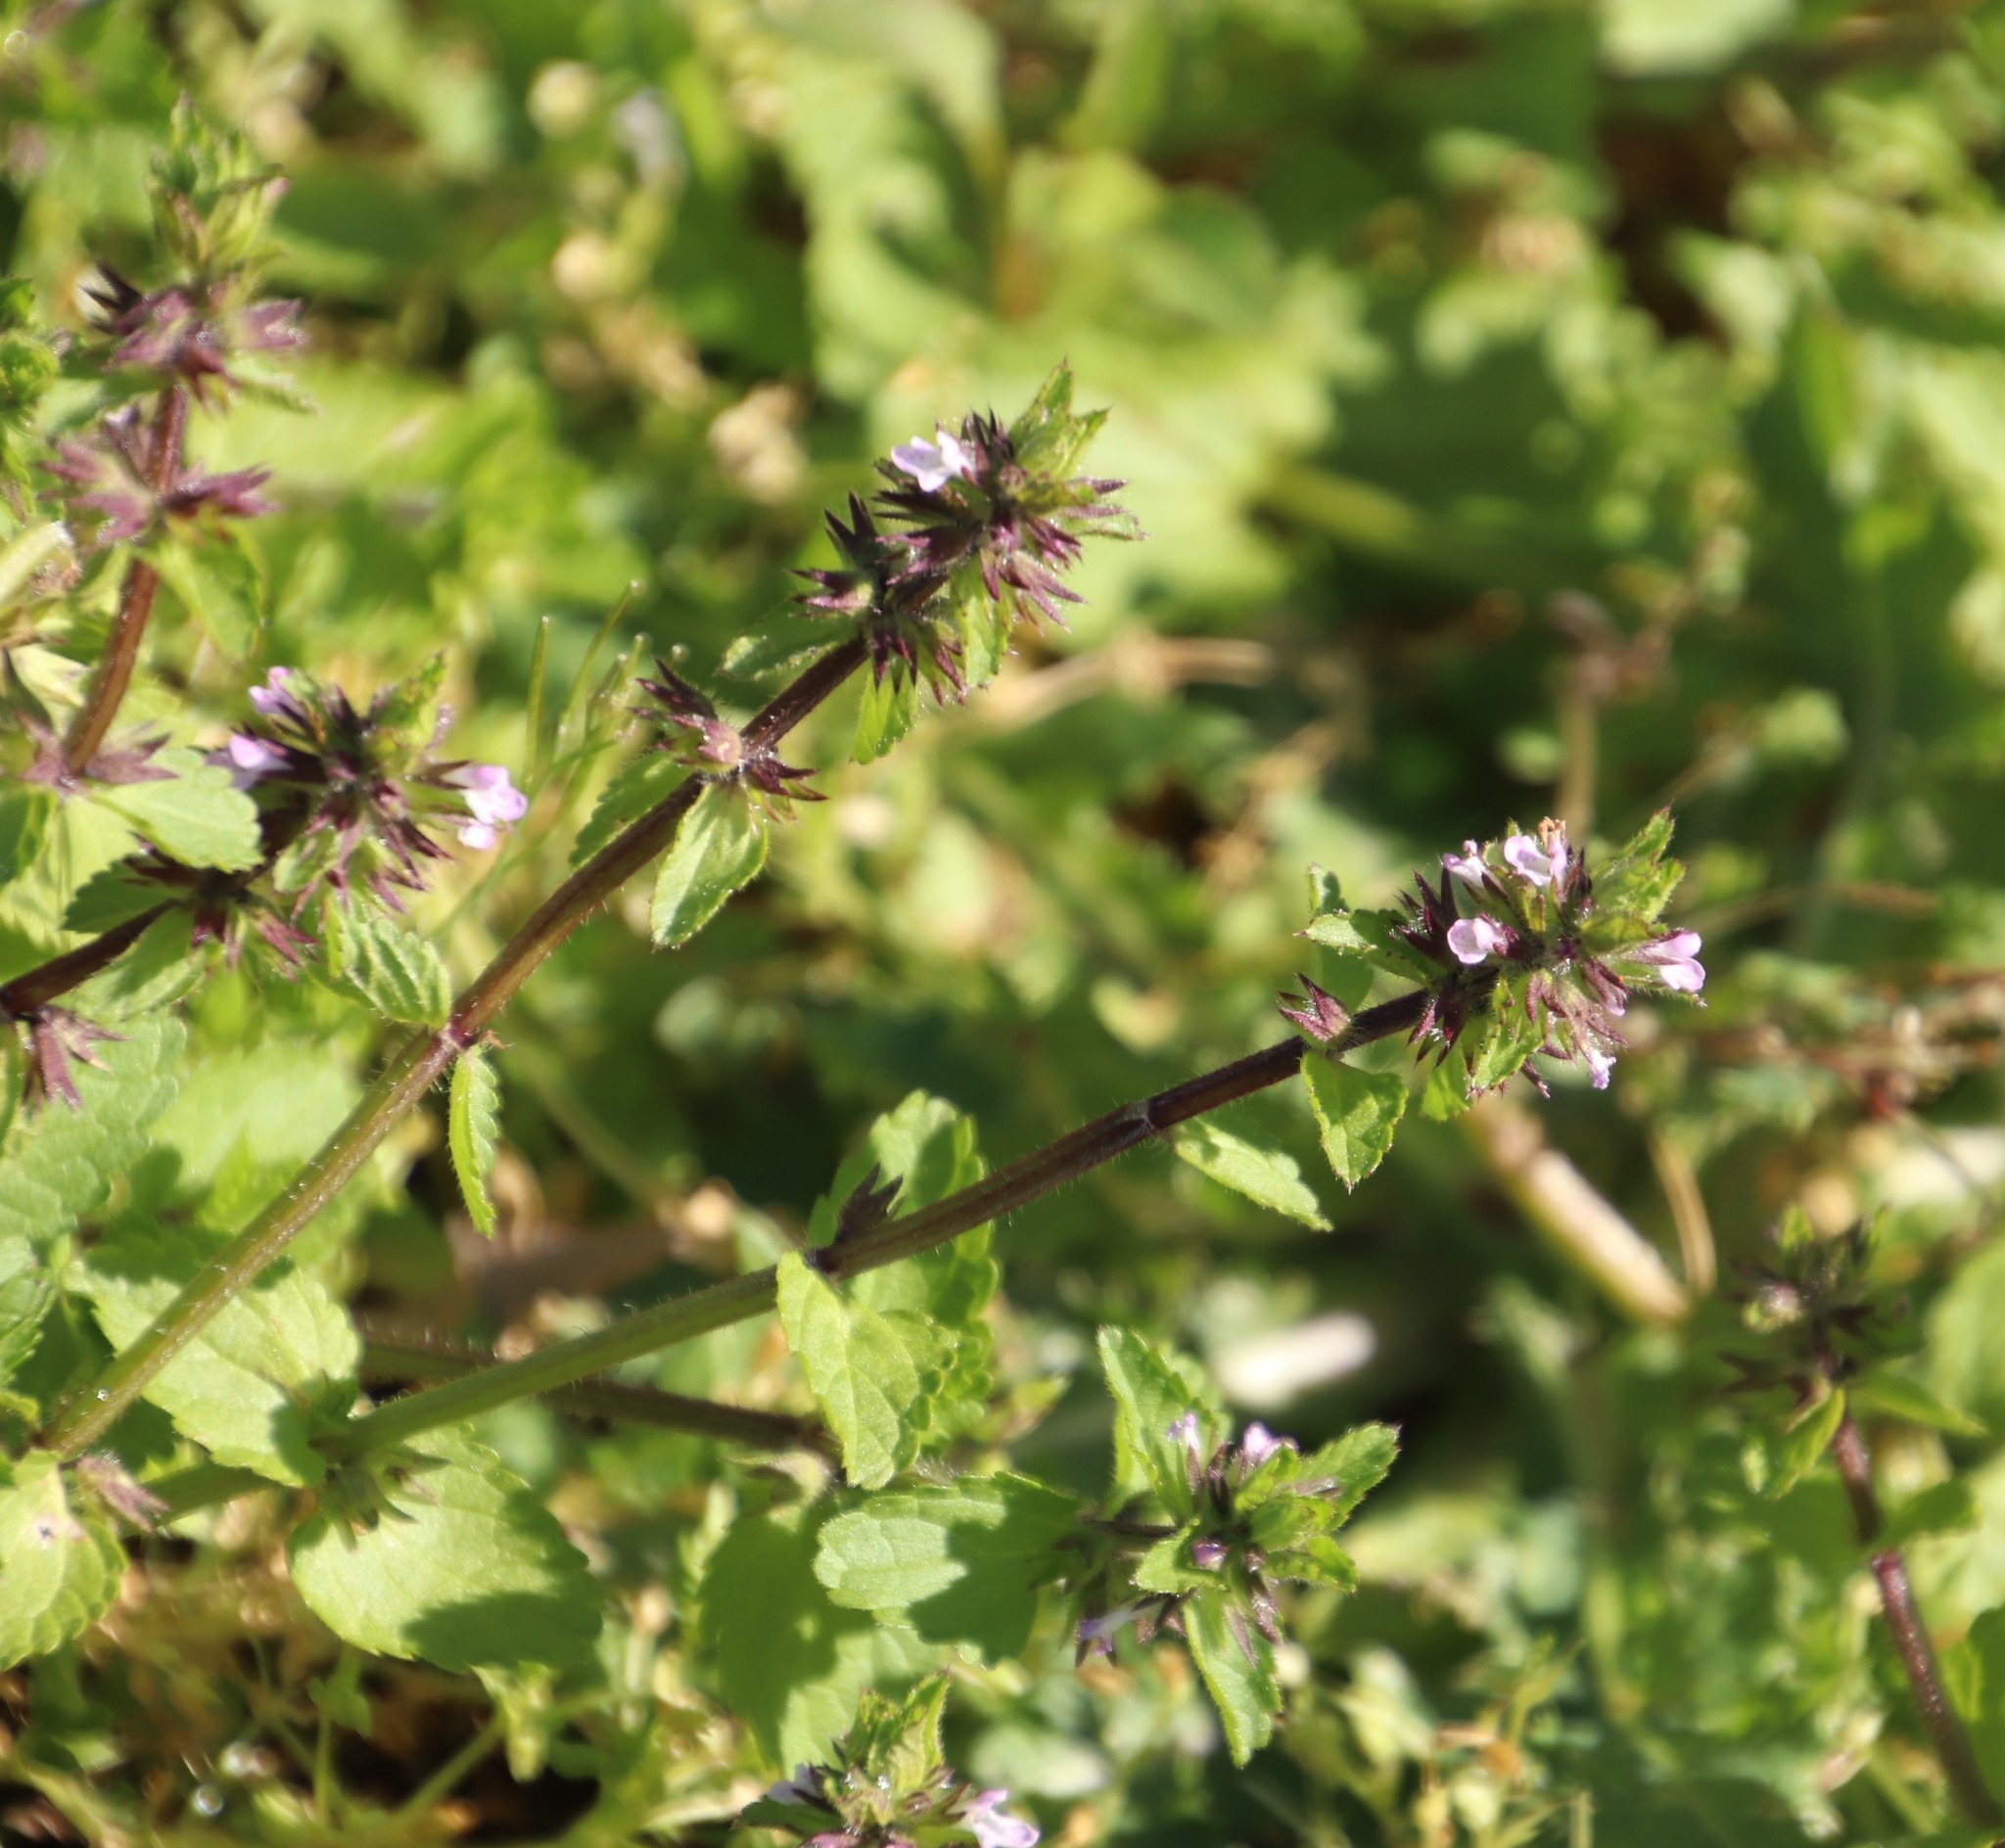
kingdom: Plantae
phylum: Tracheophyta
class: Magnoliopsida
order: Lamiales
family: Lamiaceae
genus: Stachys
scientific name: Stachys arvensis
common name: Field woundwort
